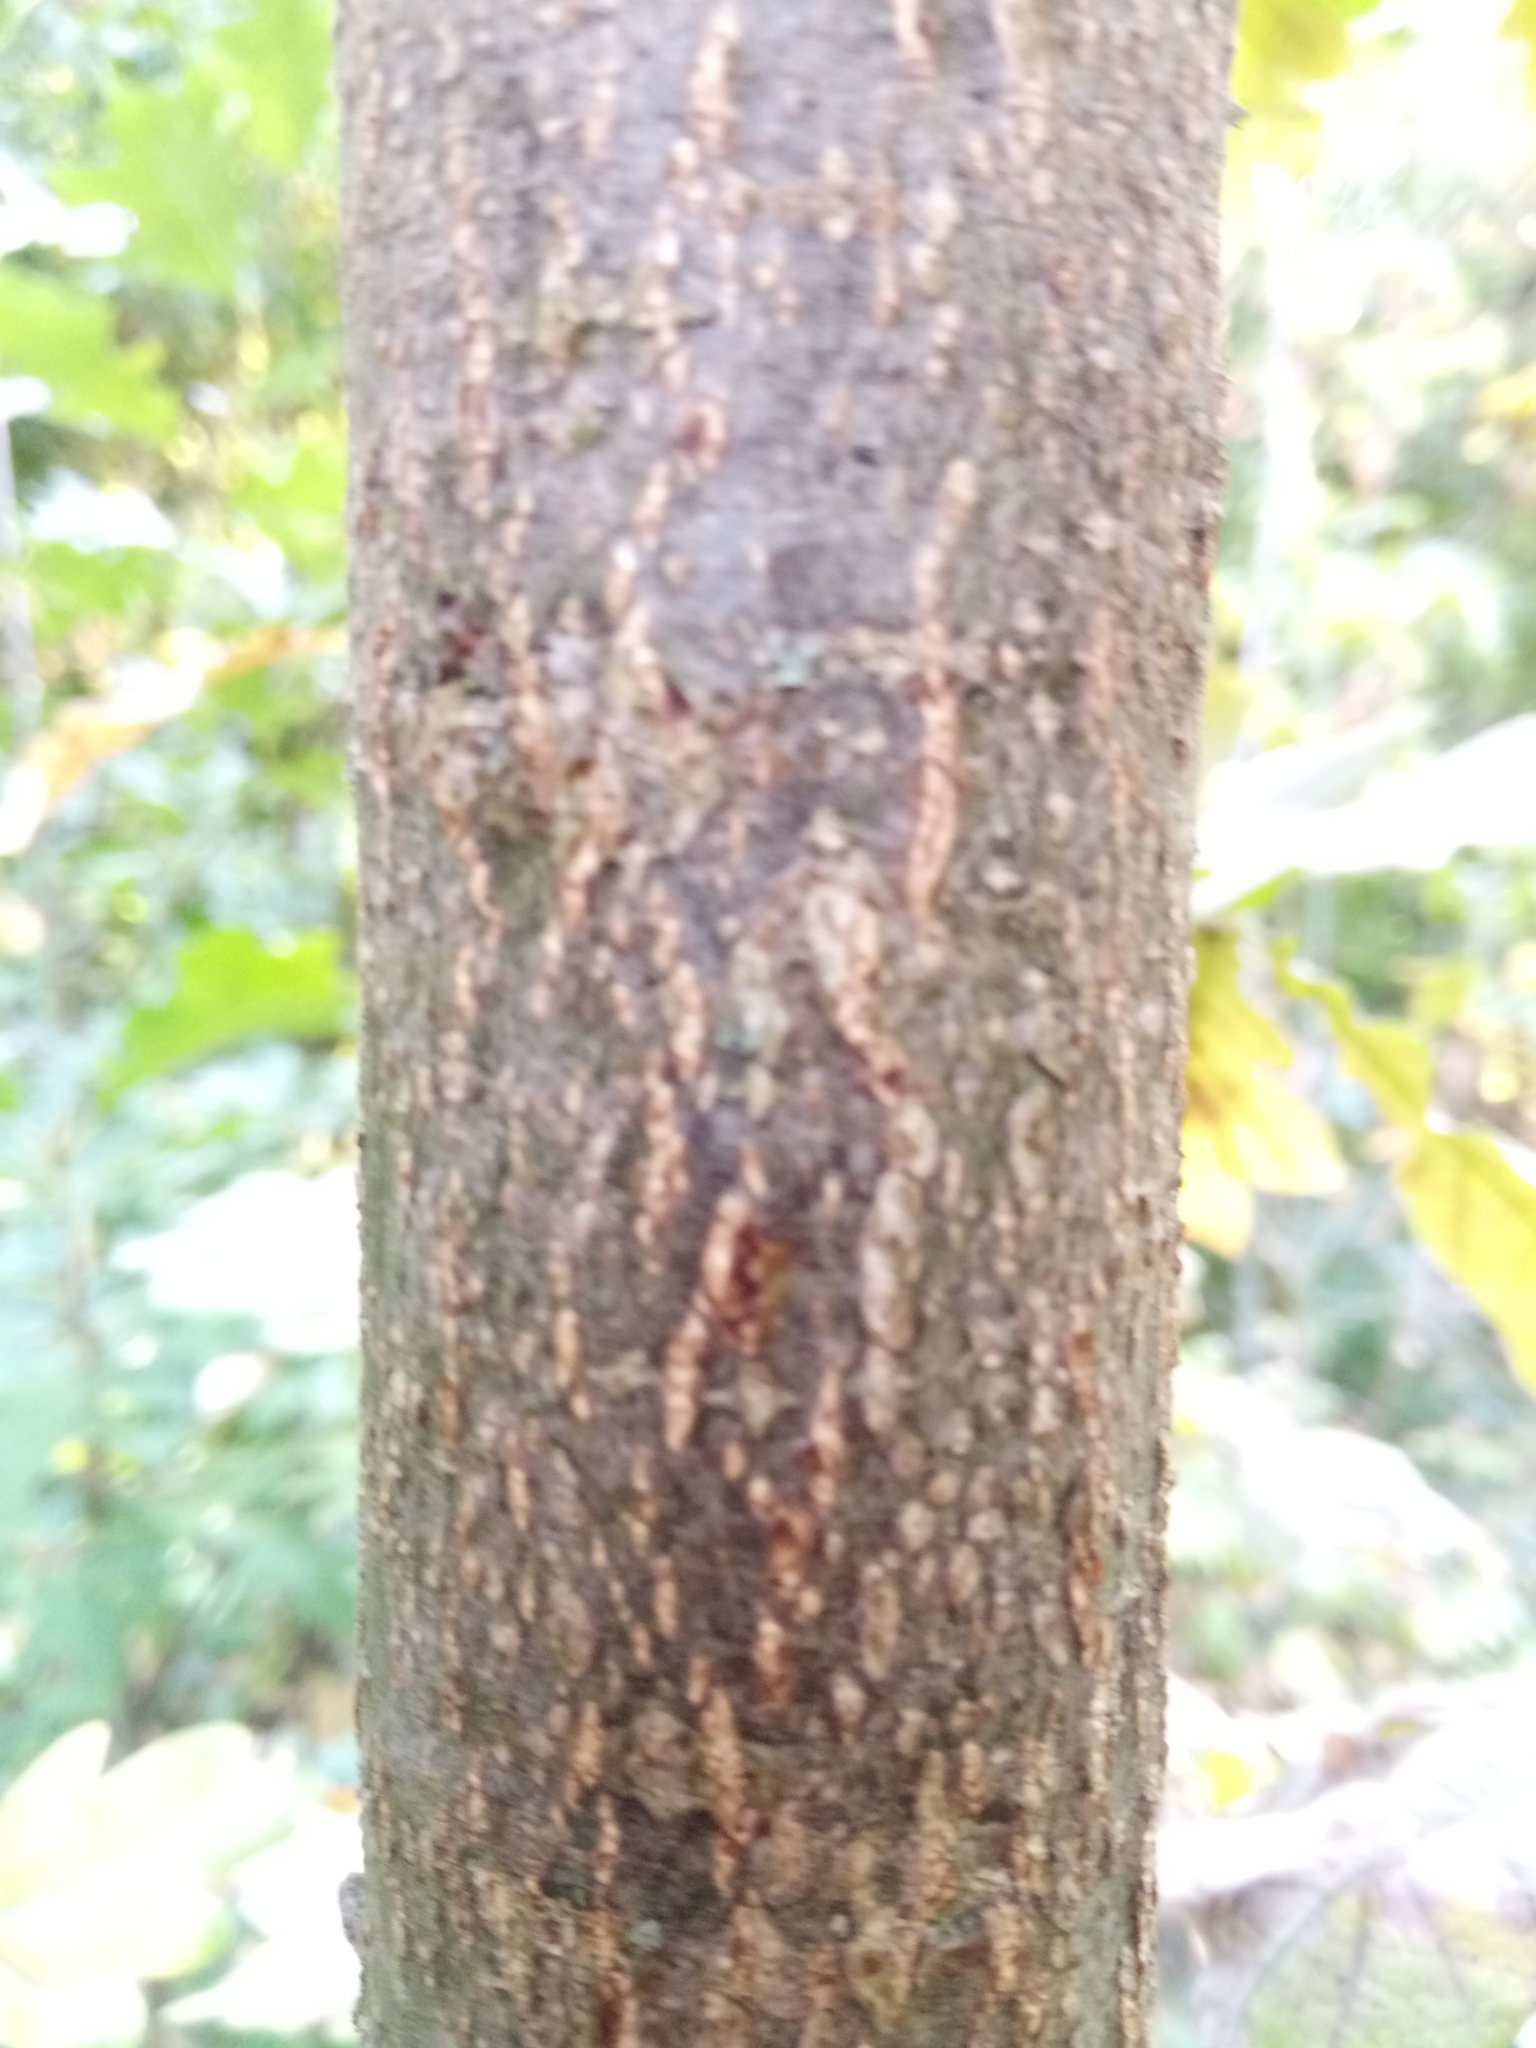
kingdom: Plantae
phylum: Tracheophyta
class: Magnoliopsida
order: Fagales
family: Fagaceae
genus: Quercus
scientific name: Quercus robur
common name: Pedunculate oak
